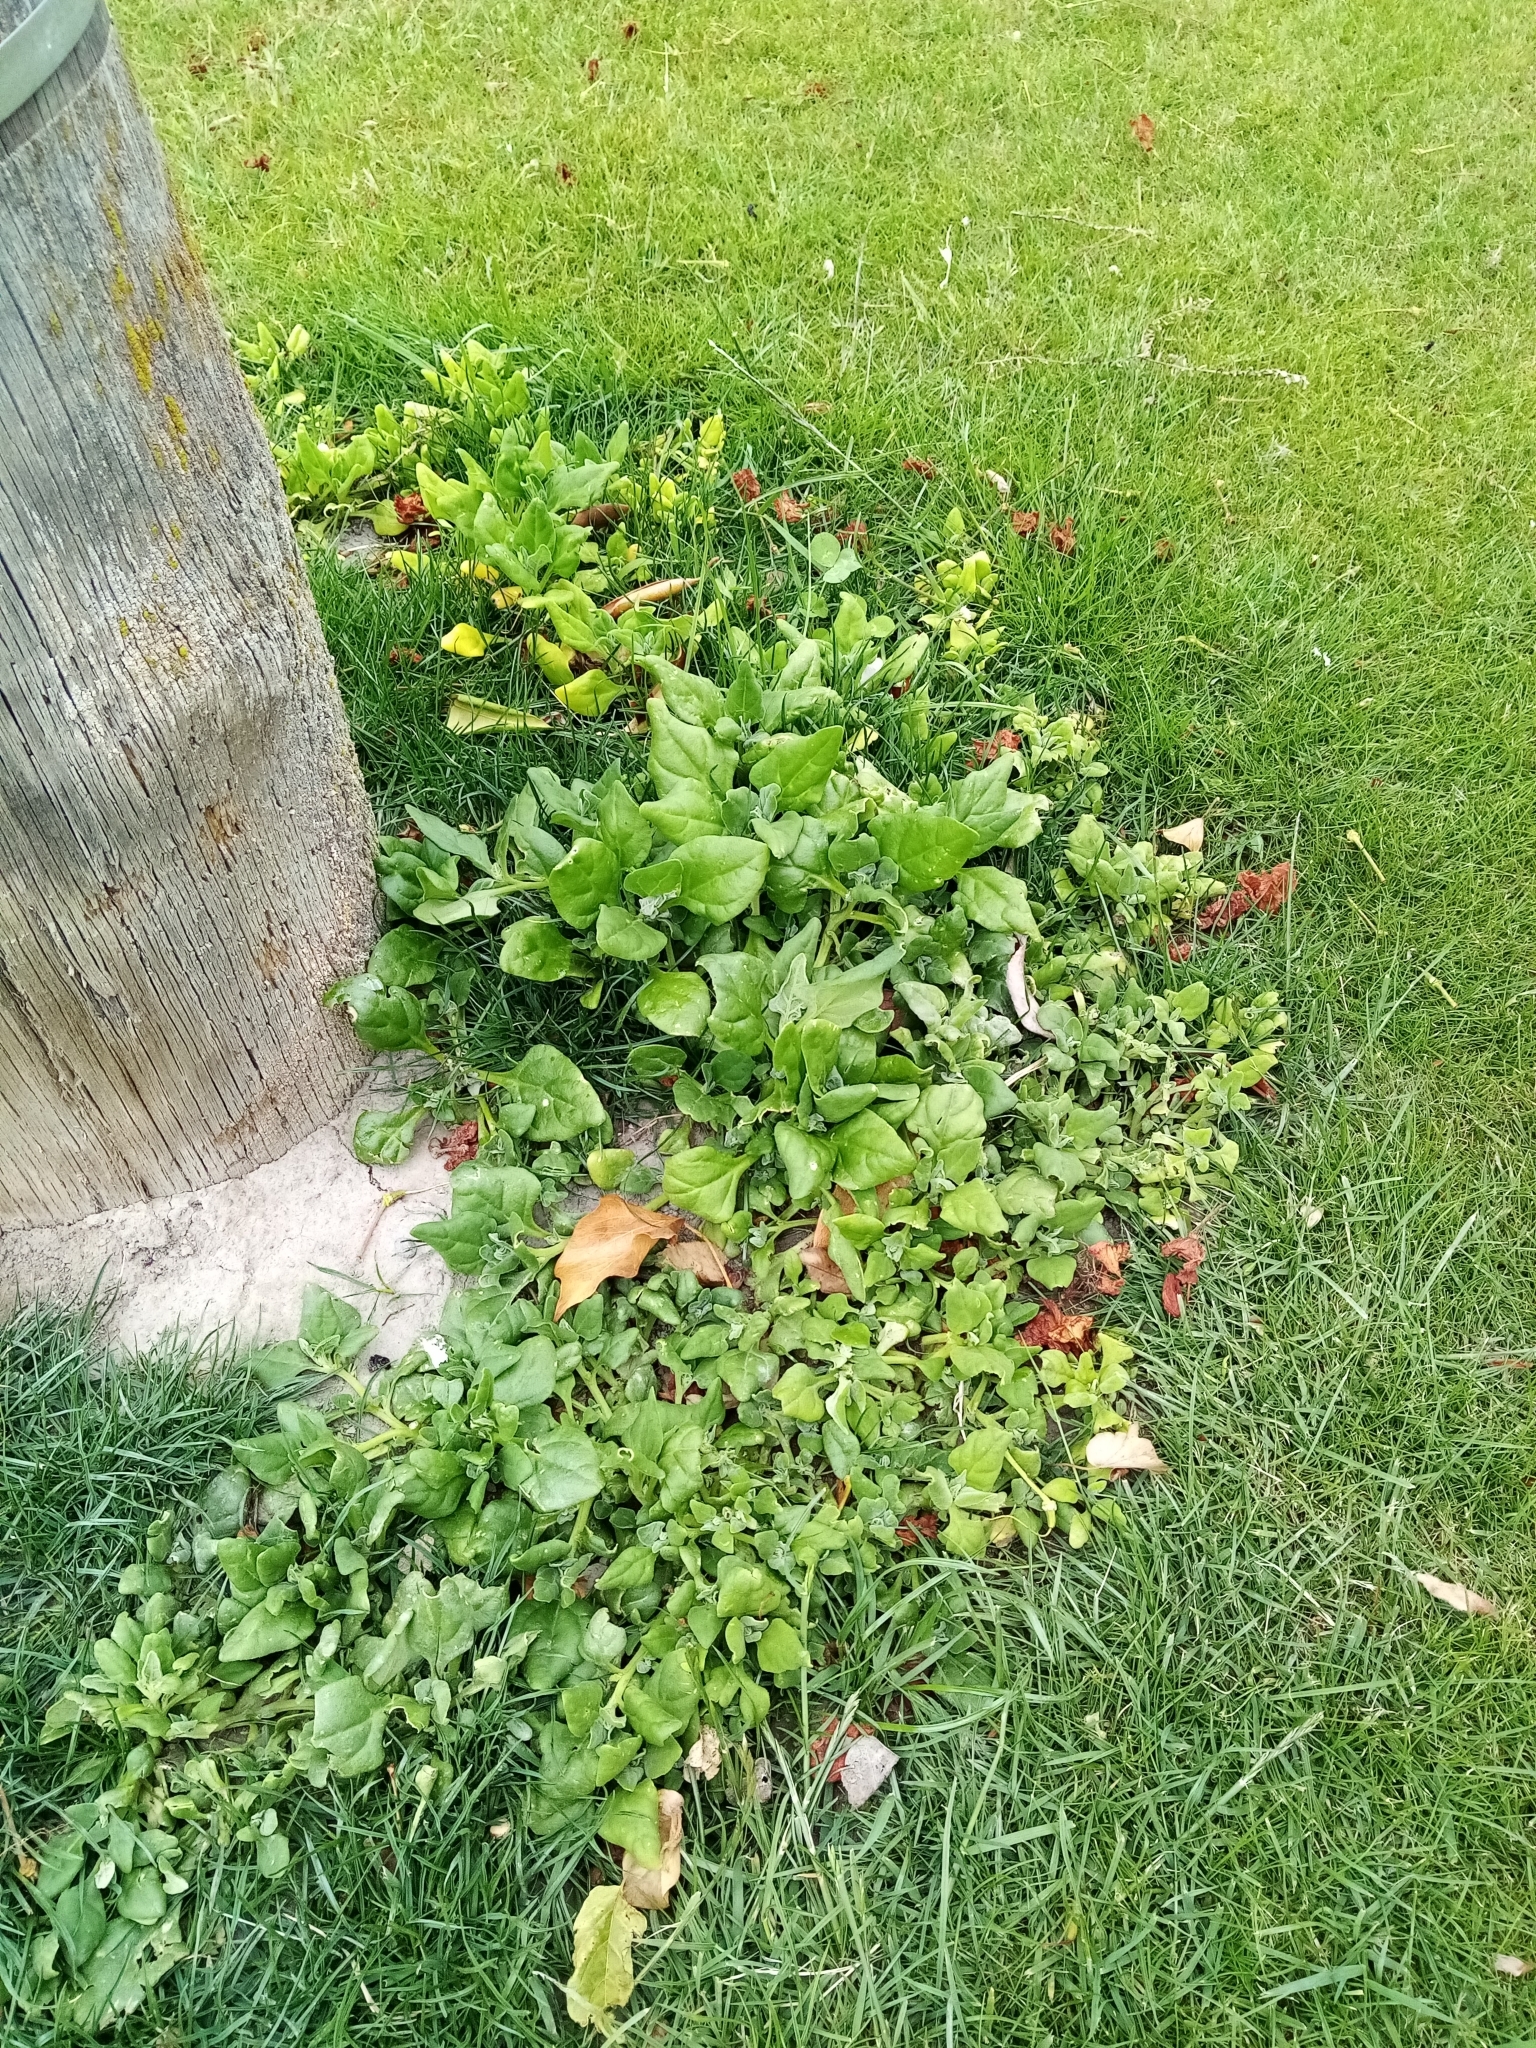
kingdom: Plantae
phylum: Tracheophyta
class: Magnoliopsida
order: Caryophyllales
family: Aizoaceae
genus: Tetragonia
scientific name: Tetragonia tetragonoides
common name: New zealand-spinach
